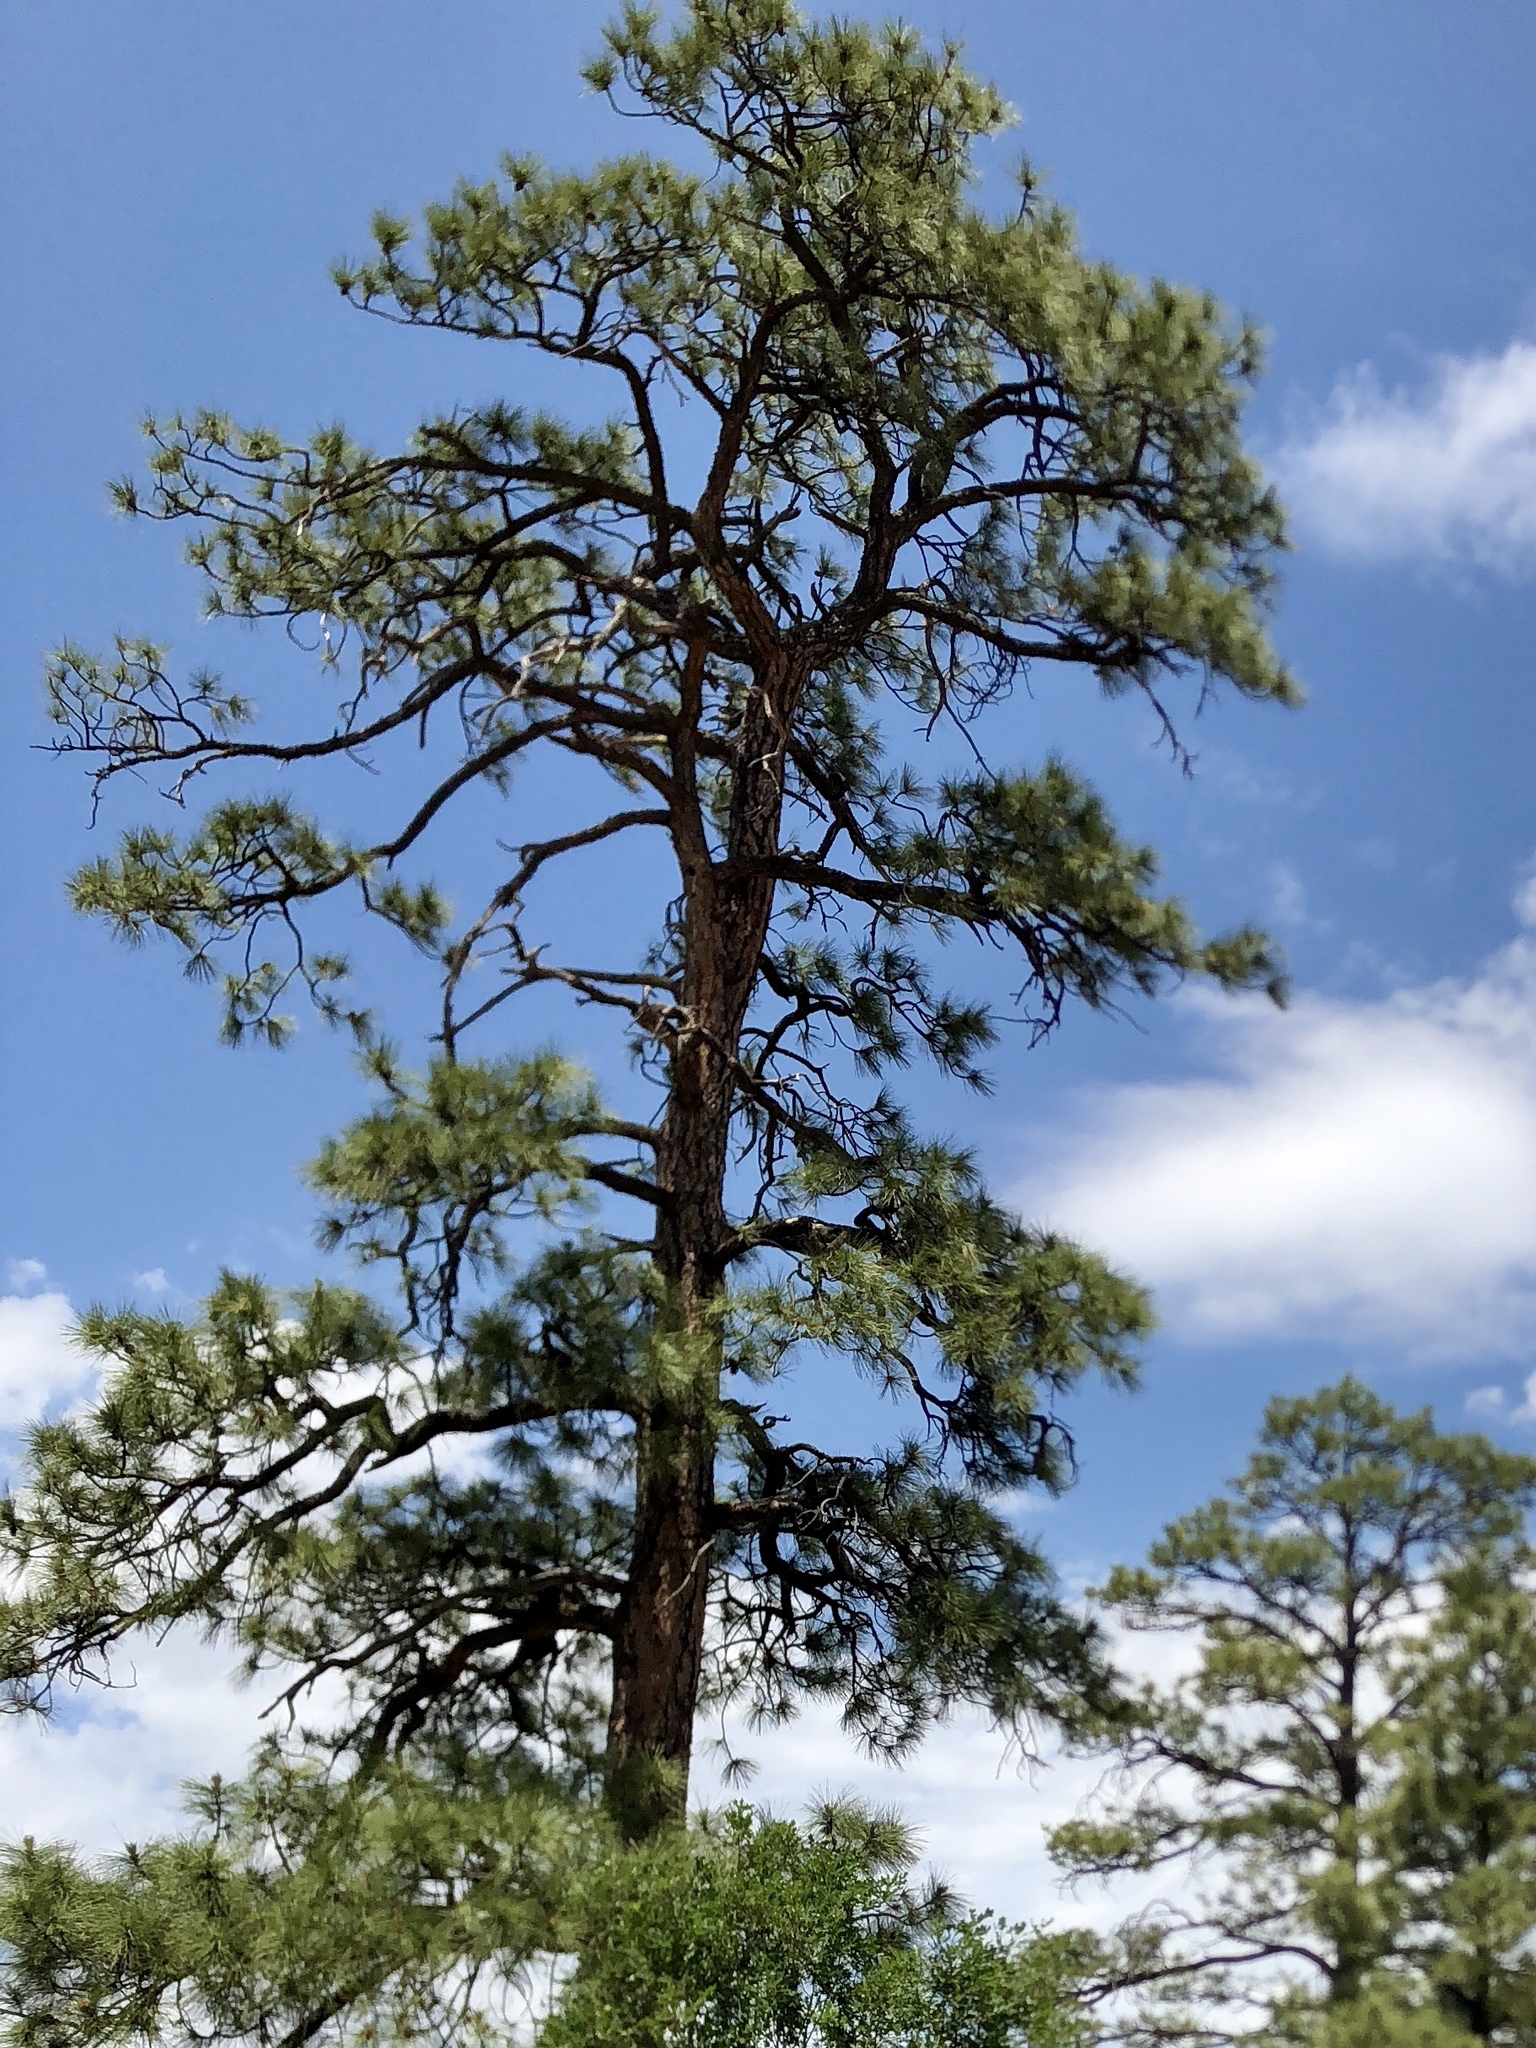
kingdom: Plantae
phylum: Tracheophyta
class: Pinopsida
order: Pinales
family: Pinaceae
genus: Pinus
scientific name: Pinus ponderosa
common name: Western yellow-pine
